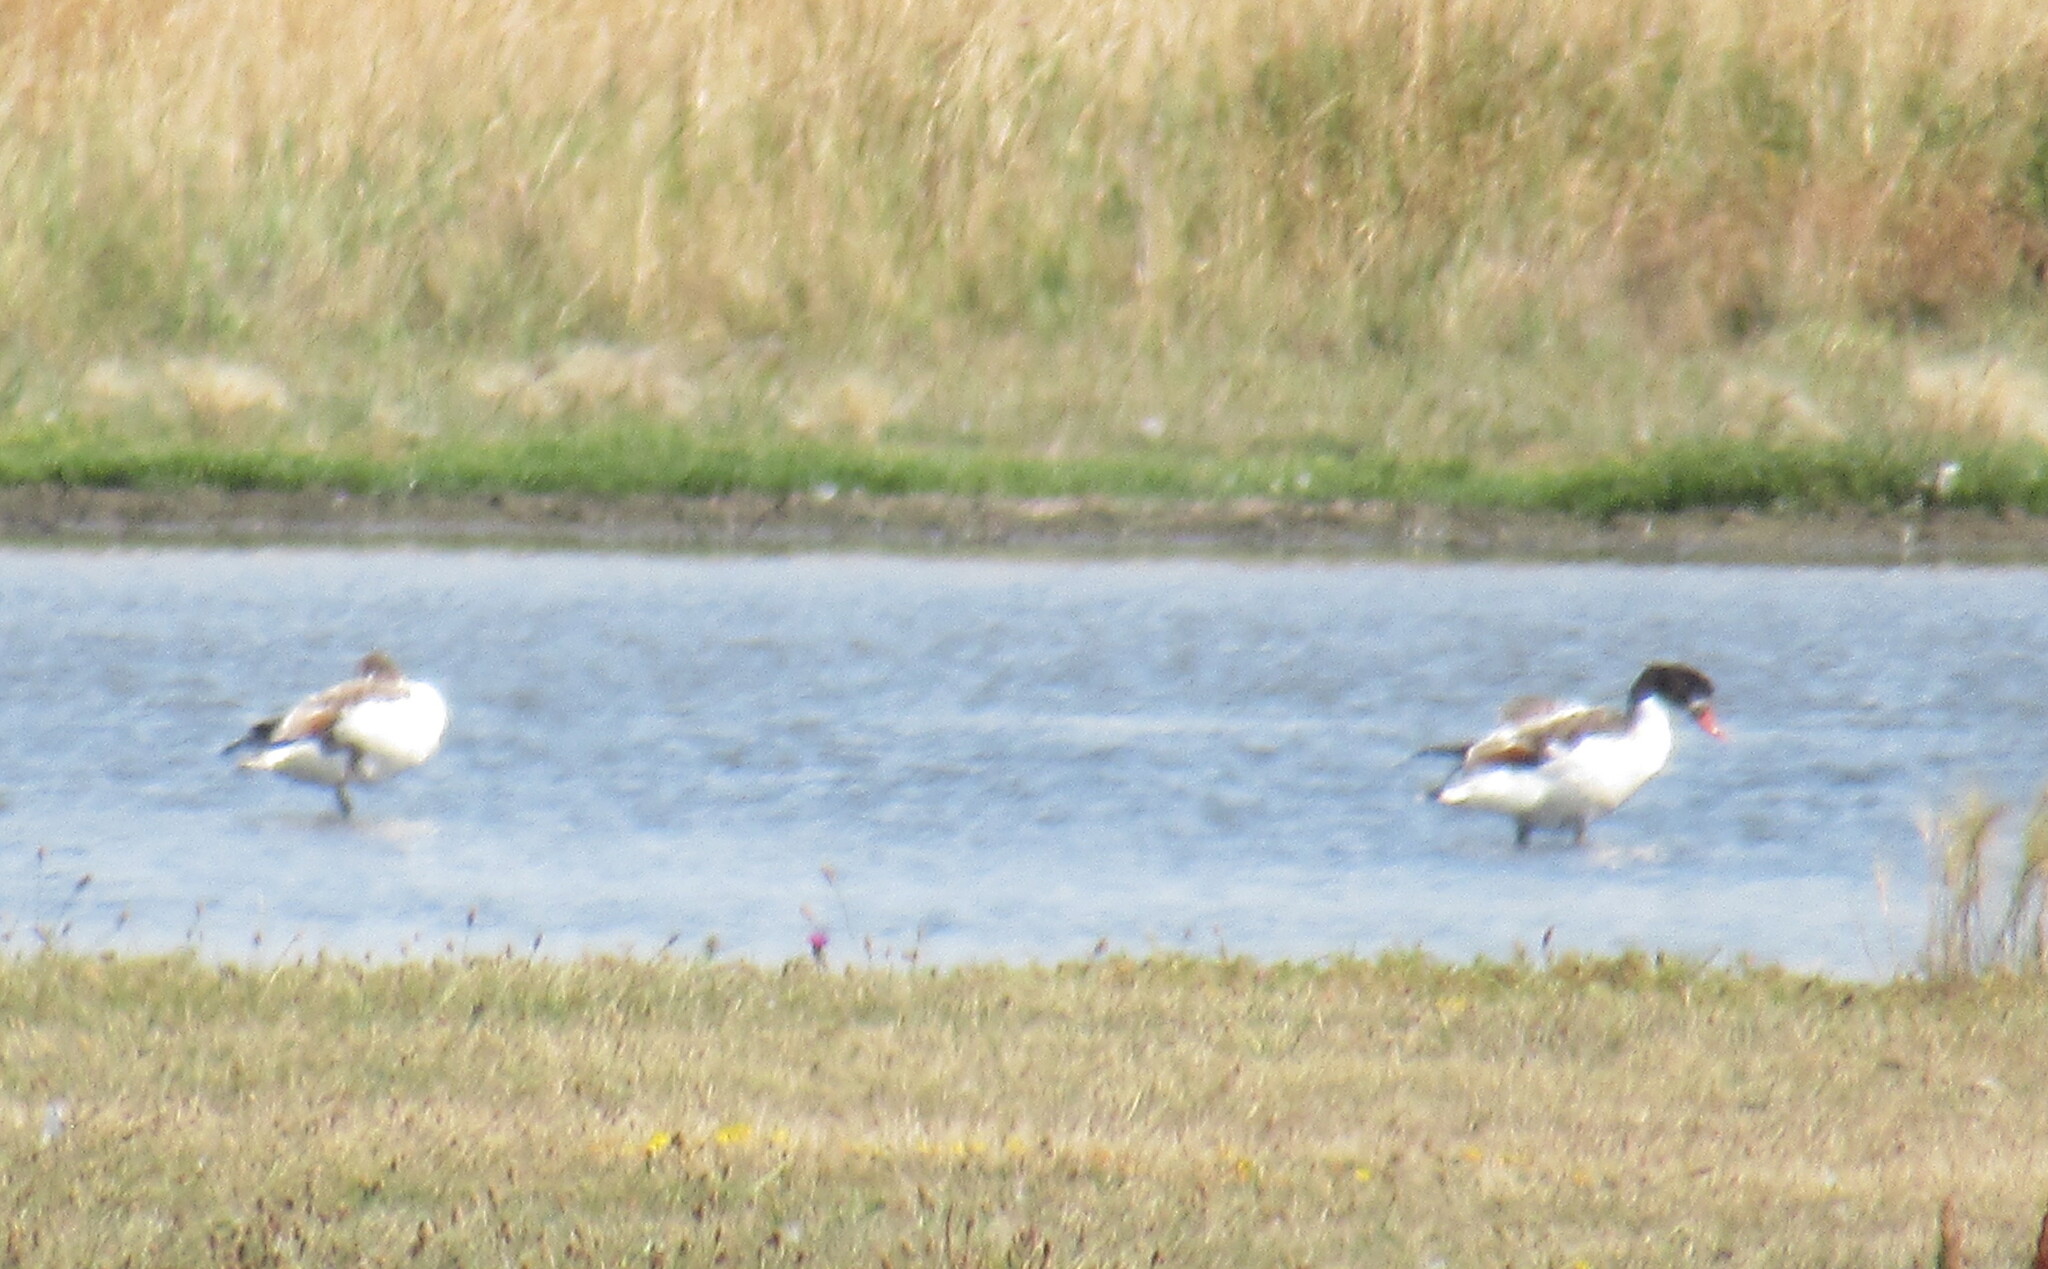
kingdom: Animalia
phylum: Chordata
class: Aves
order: Anseriformes
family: Anatidae
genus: Tadorna
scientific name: Tadorna tadorna
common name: Common shelduck
